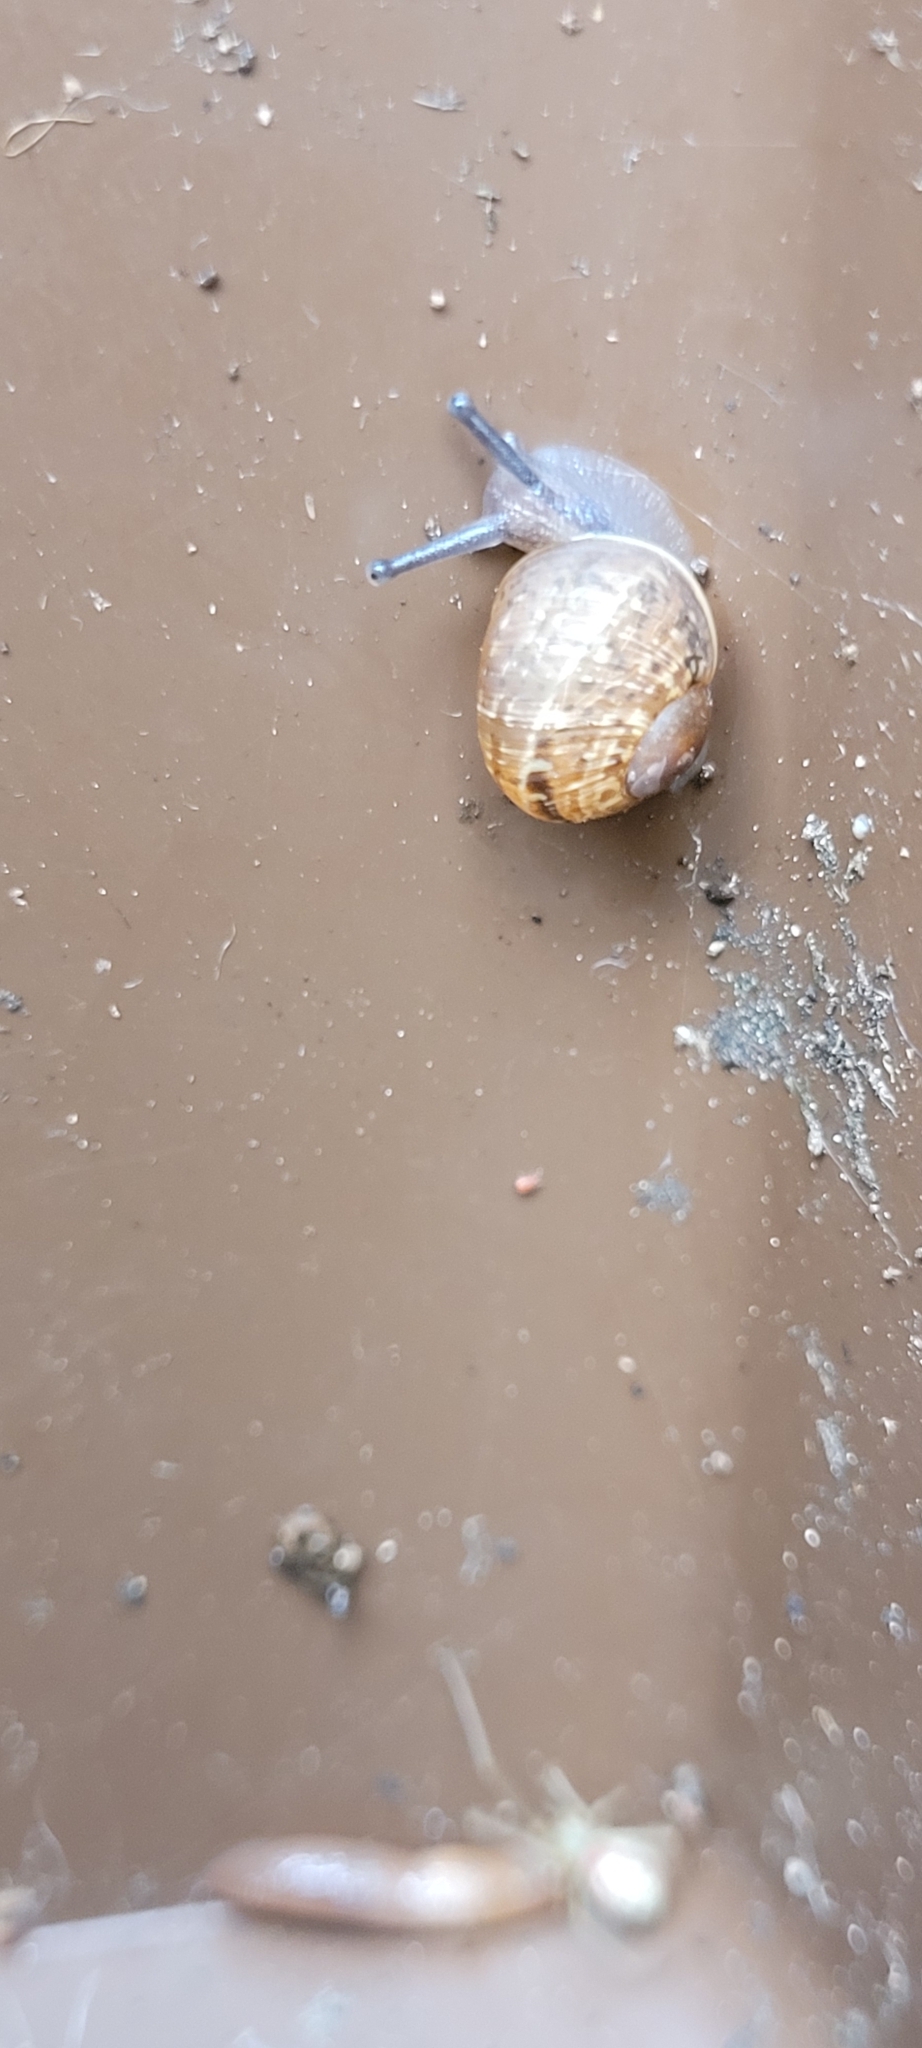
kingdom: Animalia
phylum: Mollusca
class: Gastropoda
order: Stylommatophora
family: Helicidae
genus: Cornu
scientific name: Cornu aspersum
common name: Brown garden snail
